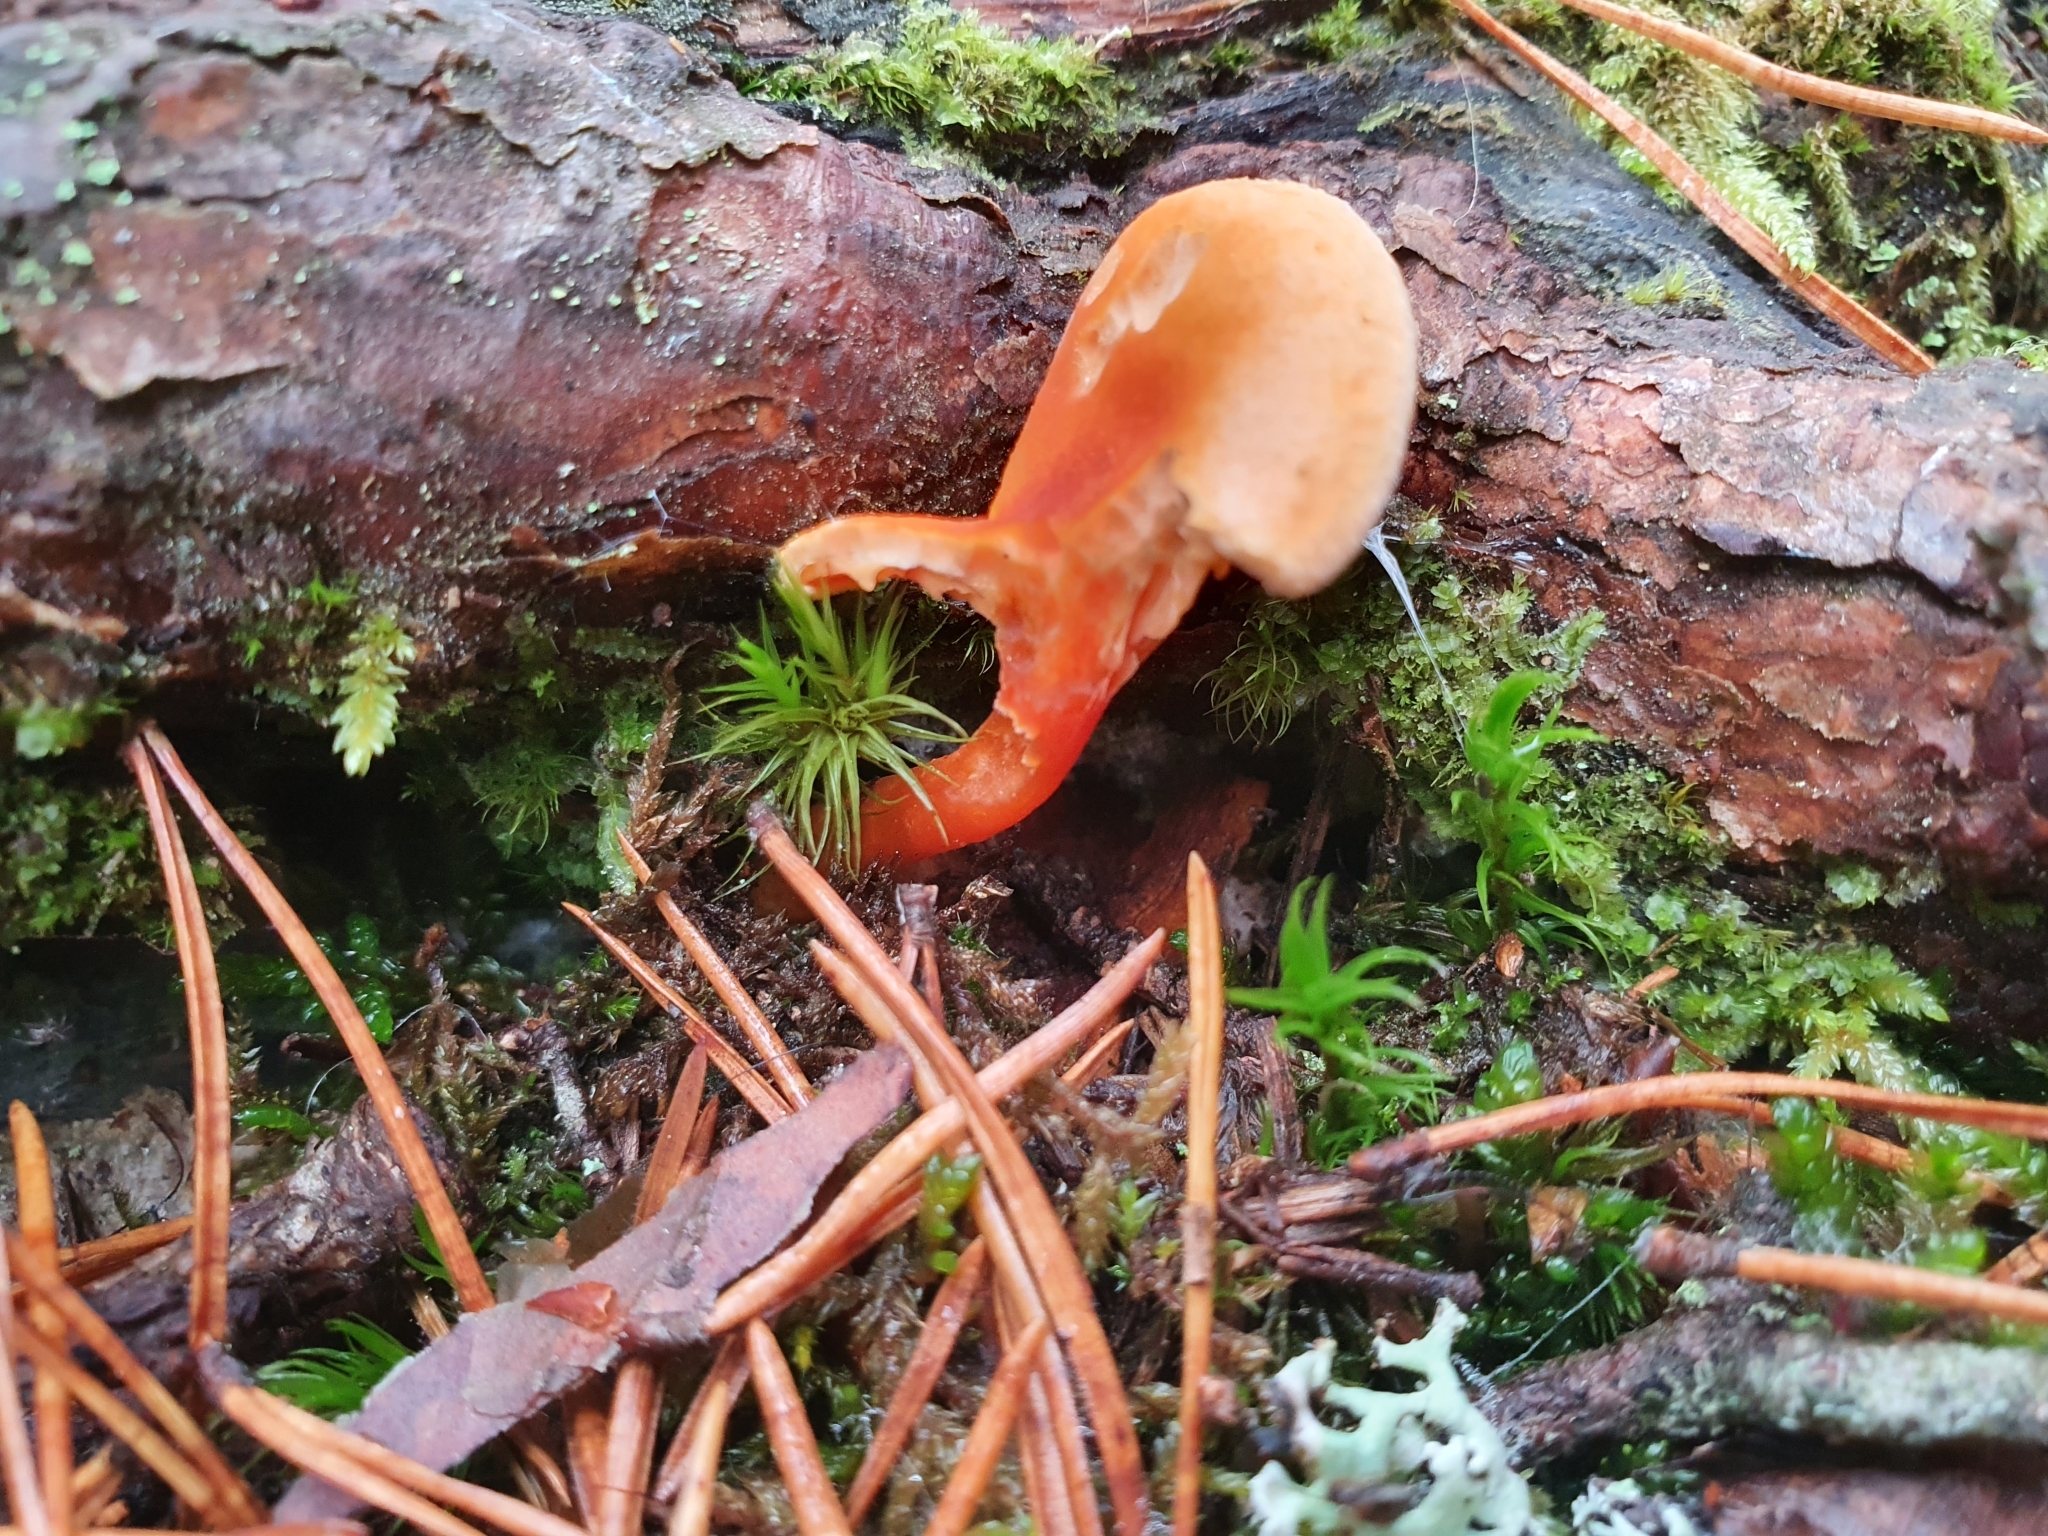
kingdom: Fungi
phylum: Basidiomycota
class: Agaricomycetes
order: Boletales
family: Hygrophoropsidaceae
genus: Hygrophoropsis
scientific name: Hygrophoropsis aurantiaca
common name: False chanterelle
